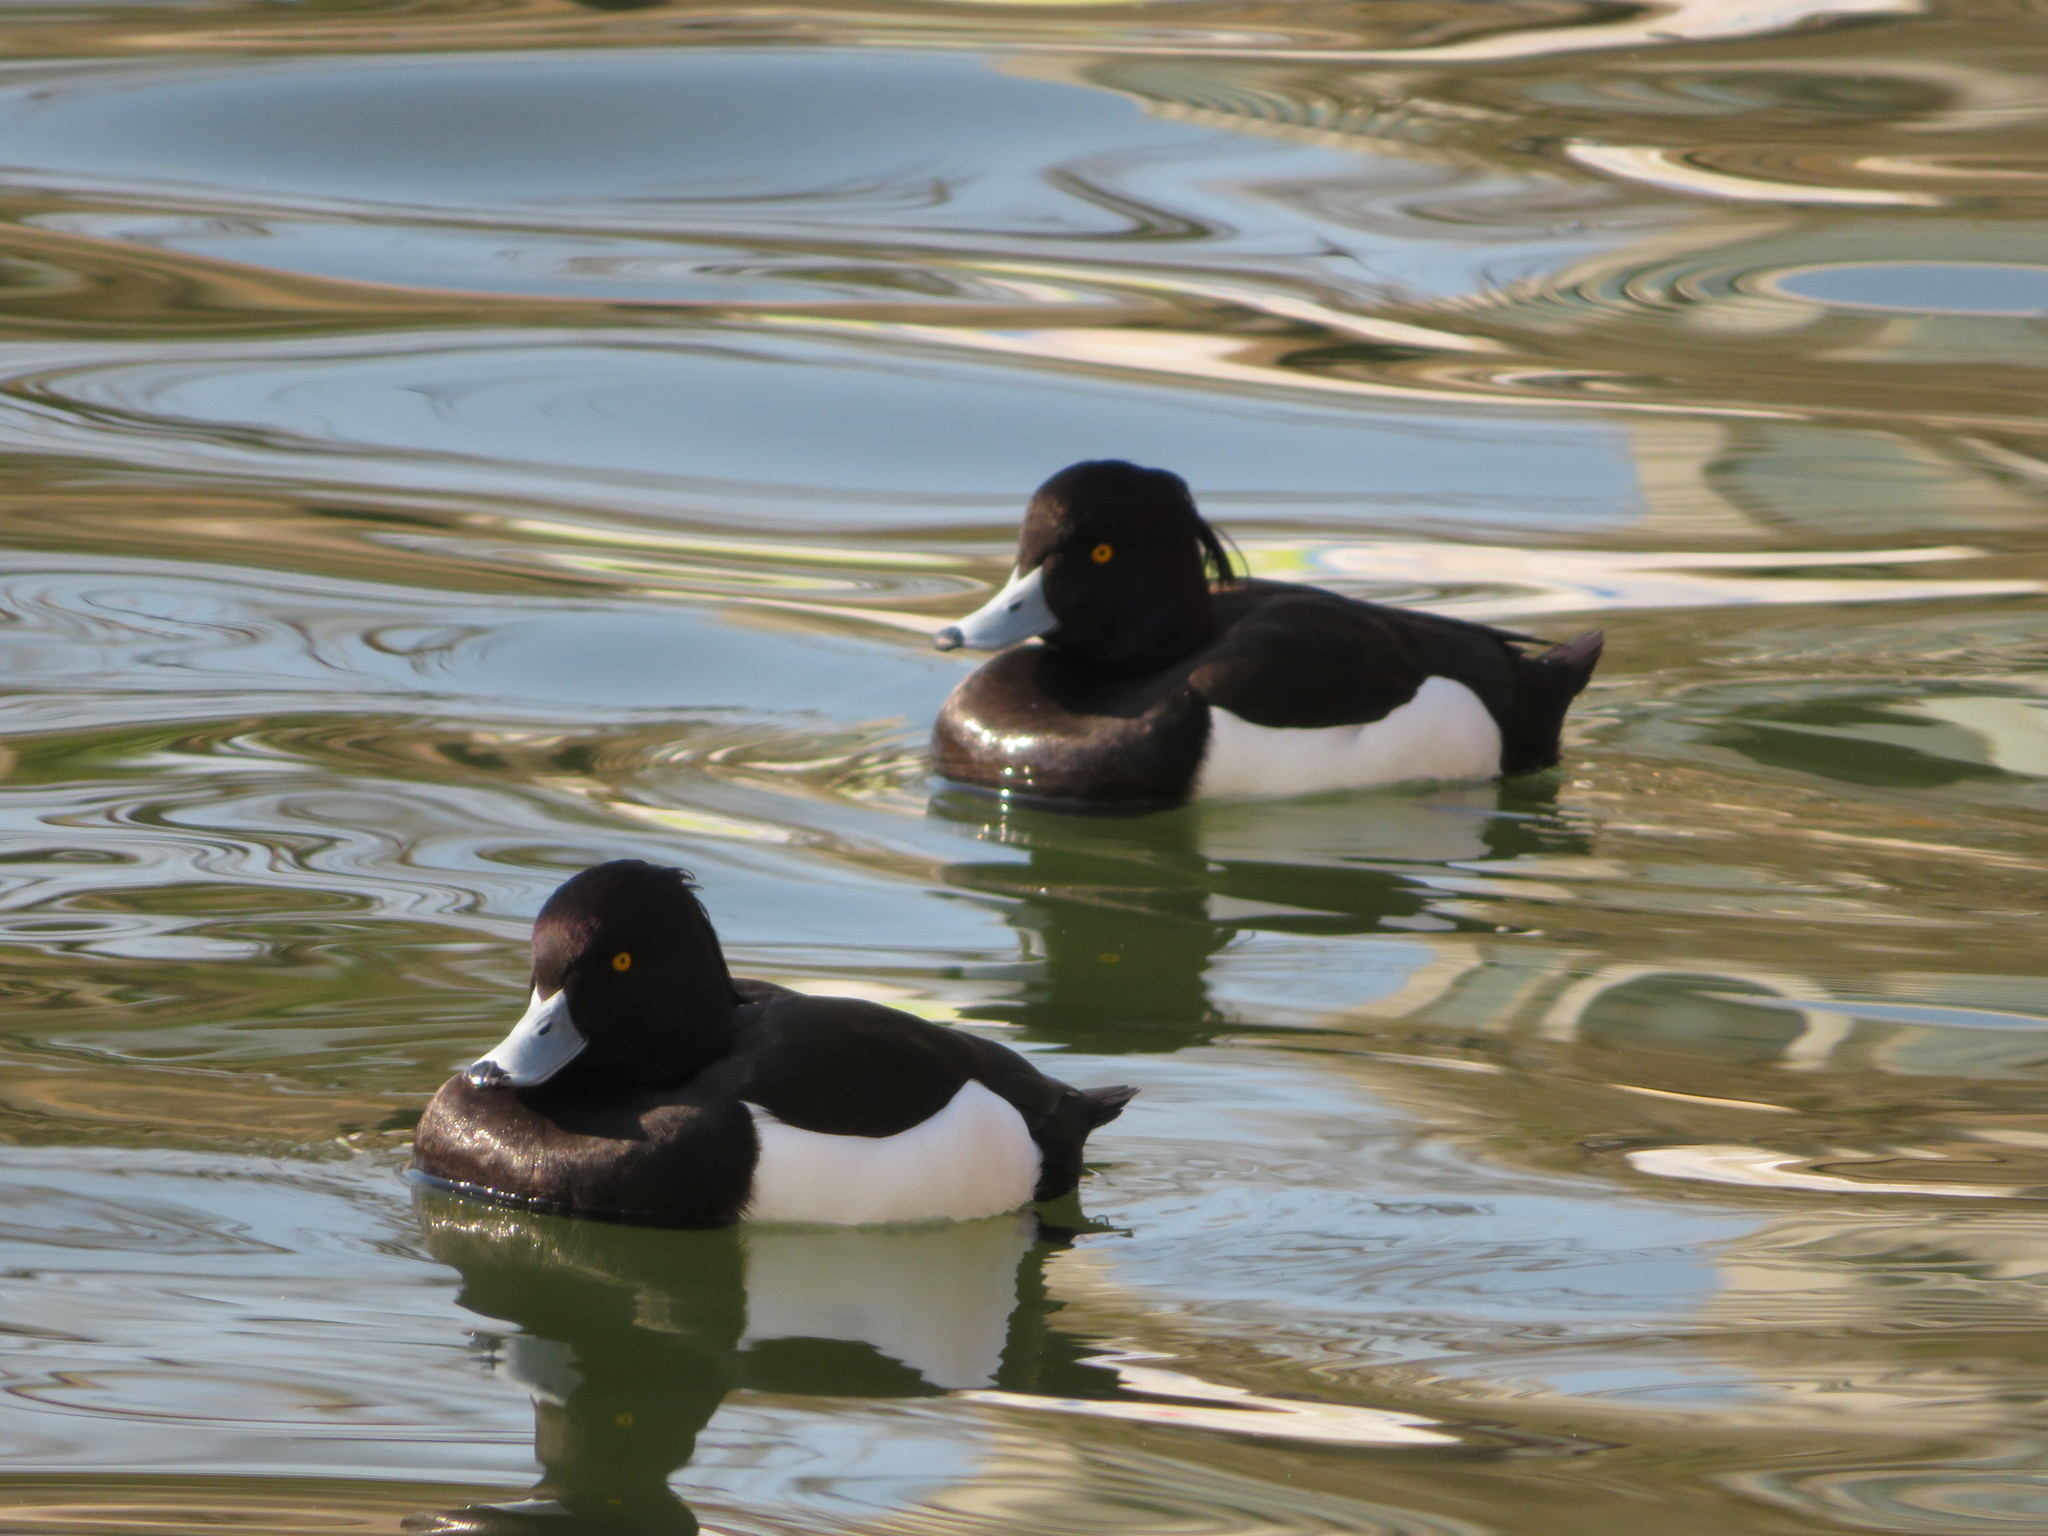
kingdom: Animalia
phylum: Chordata
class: Aves
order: Anseriformes
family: Anatidae
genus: Aythya
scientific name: Aythya fuligula
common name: Tufted duck
